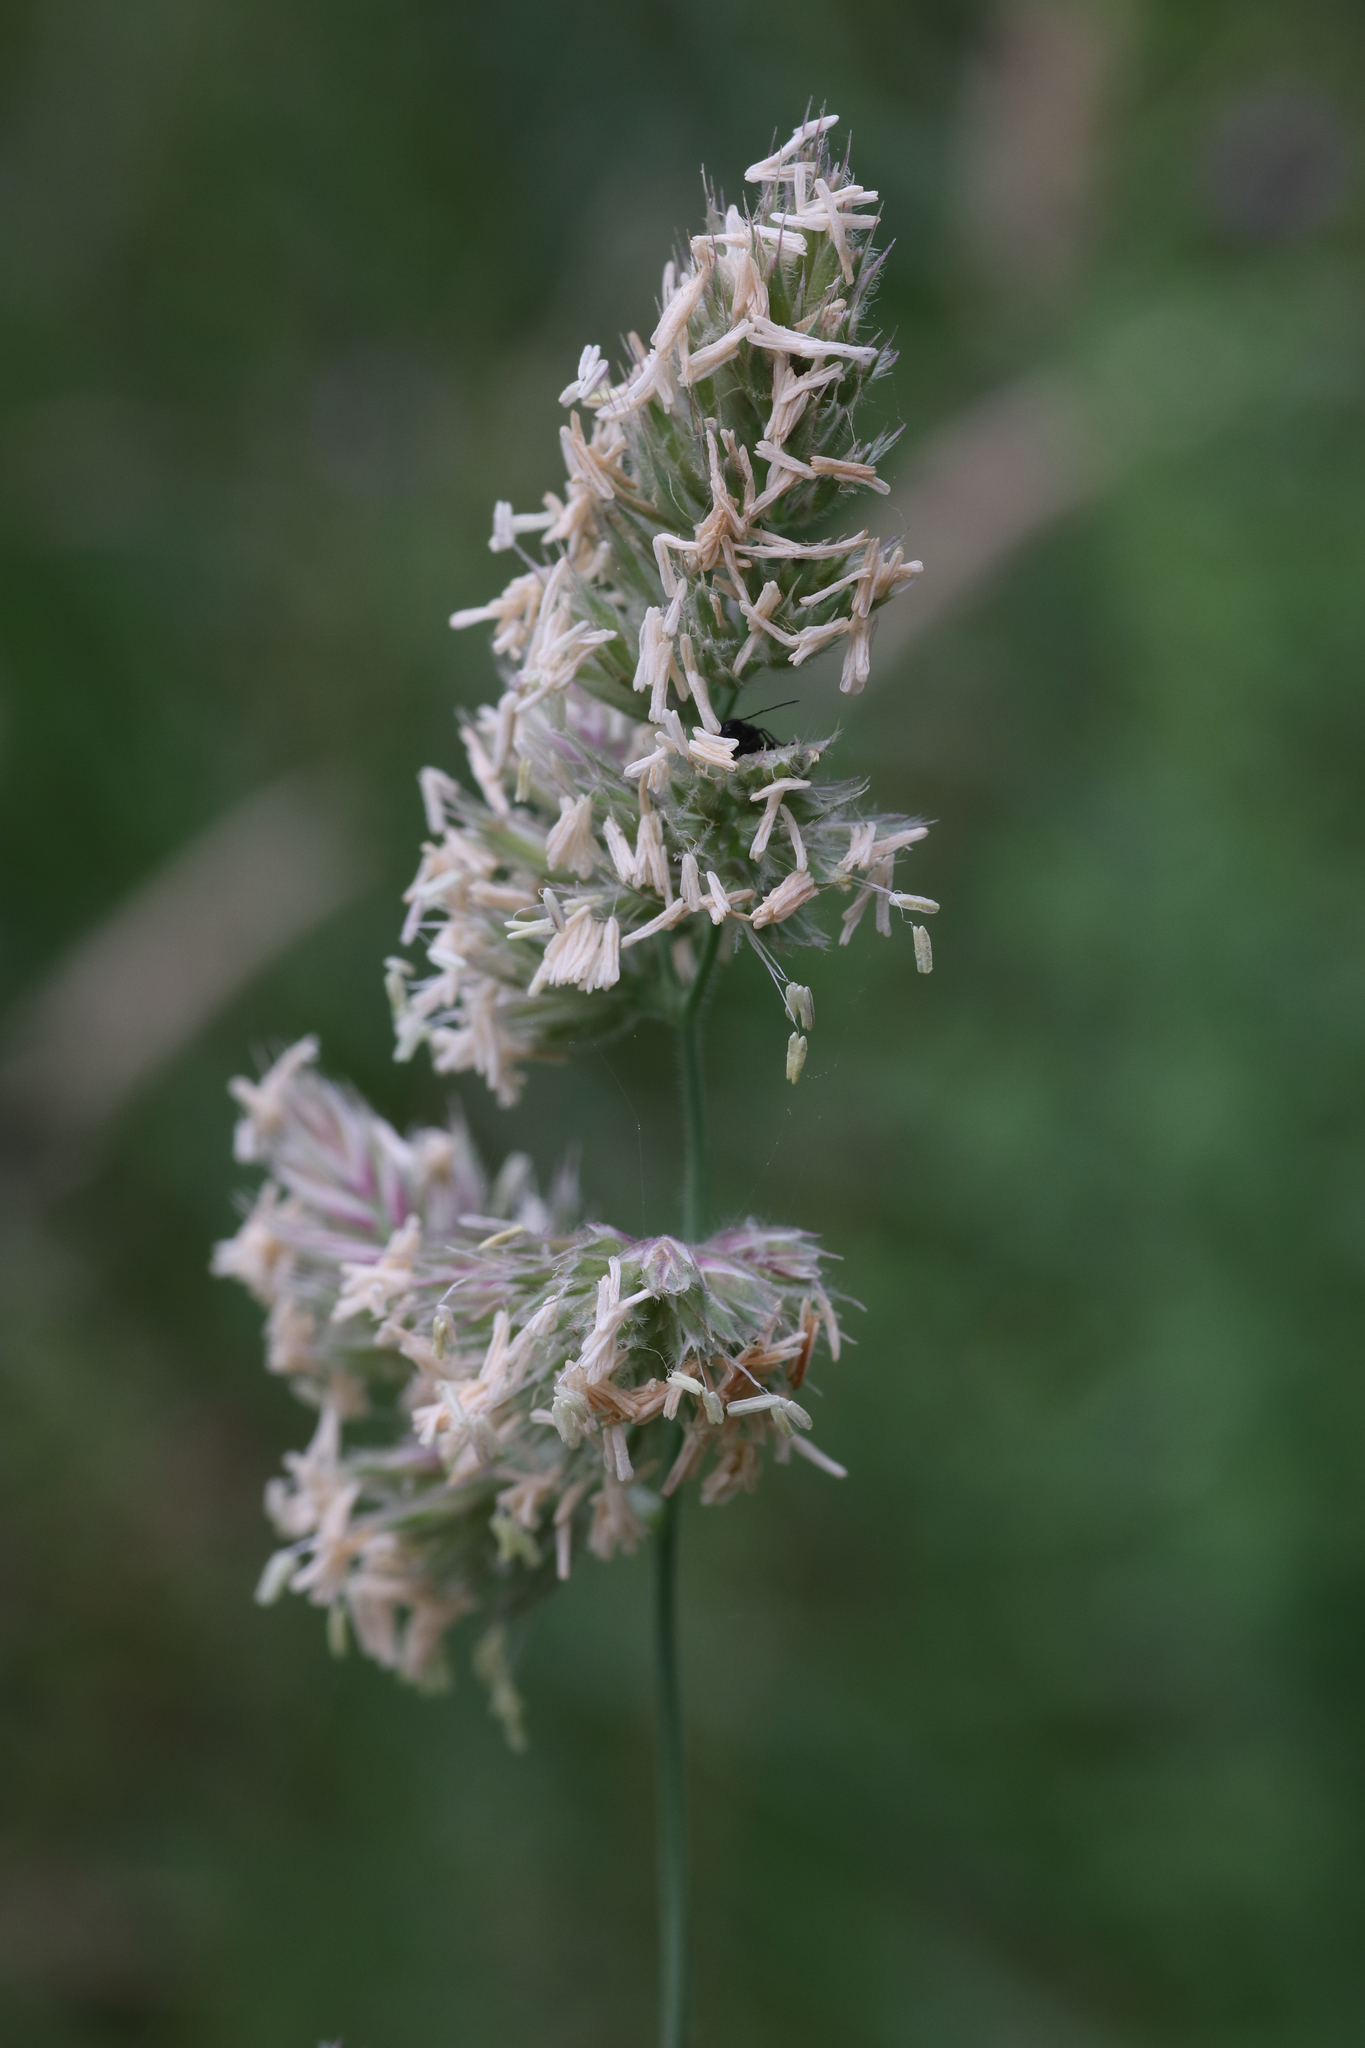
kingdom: Plantae
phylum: Tracheophyta
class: Liliopsida
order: Poales
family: Poaceae
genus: Dactylis
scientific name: Dactylis glomerata
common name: Orchardgrass
